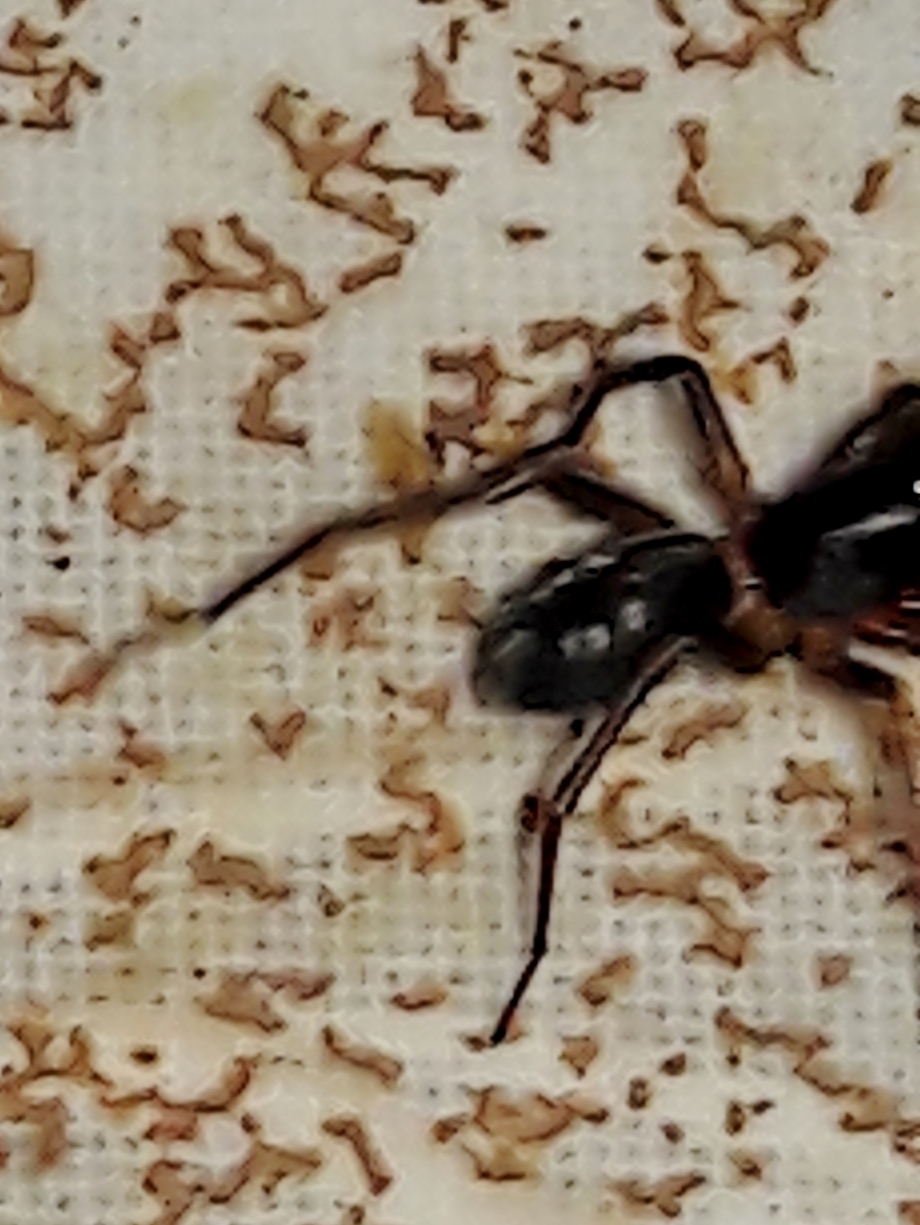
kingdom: Animalia
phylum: Arthropoda
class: Arachnida
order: Araneae
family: Corinnidae
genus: Falconina
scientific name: Falconina gracilis
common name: Antmimic spider
